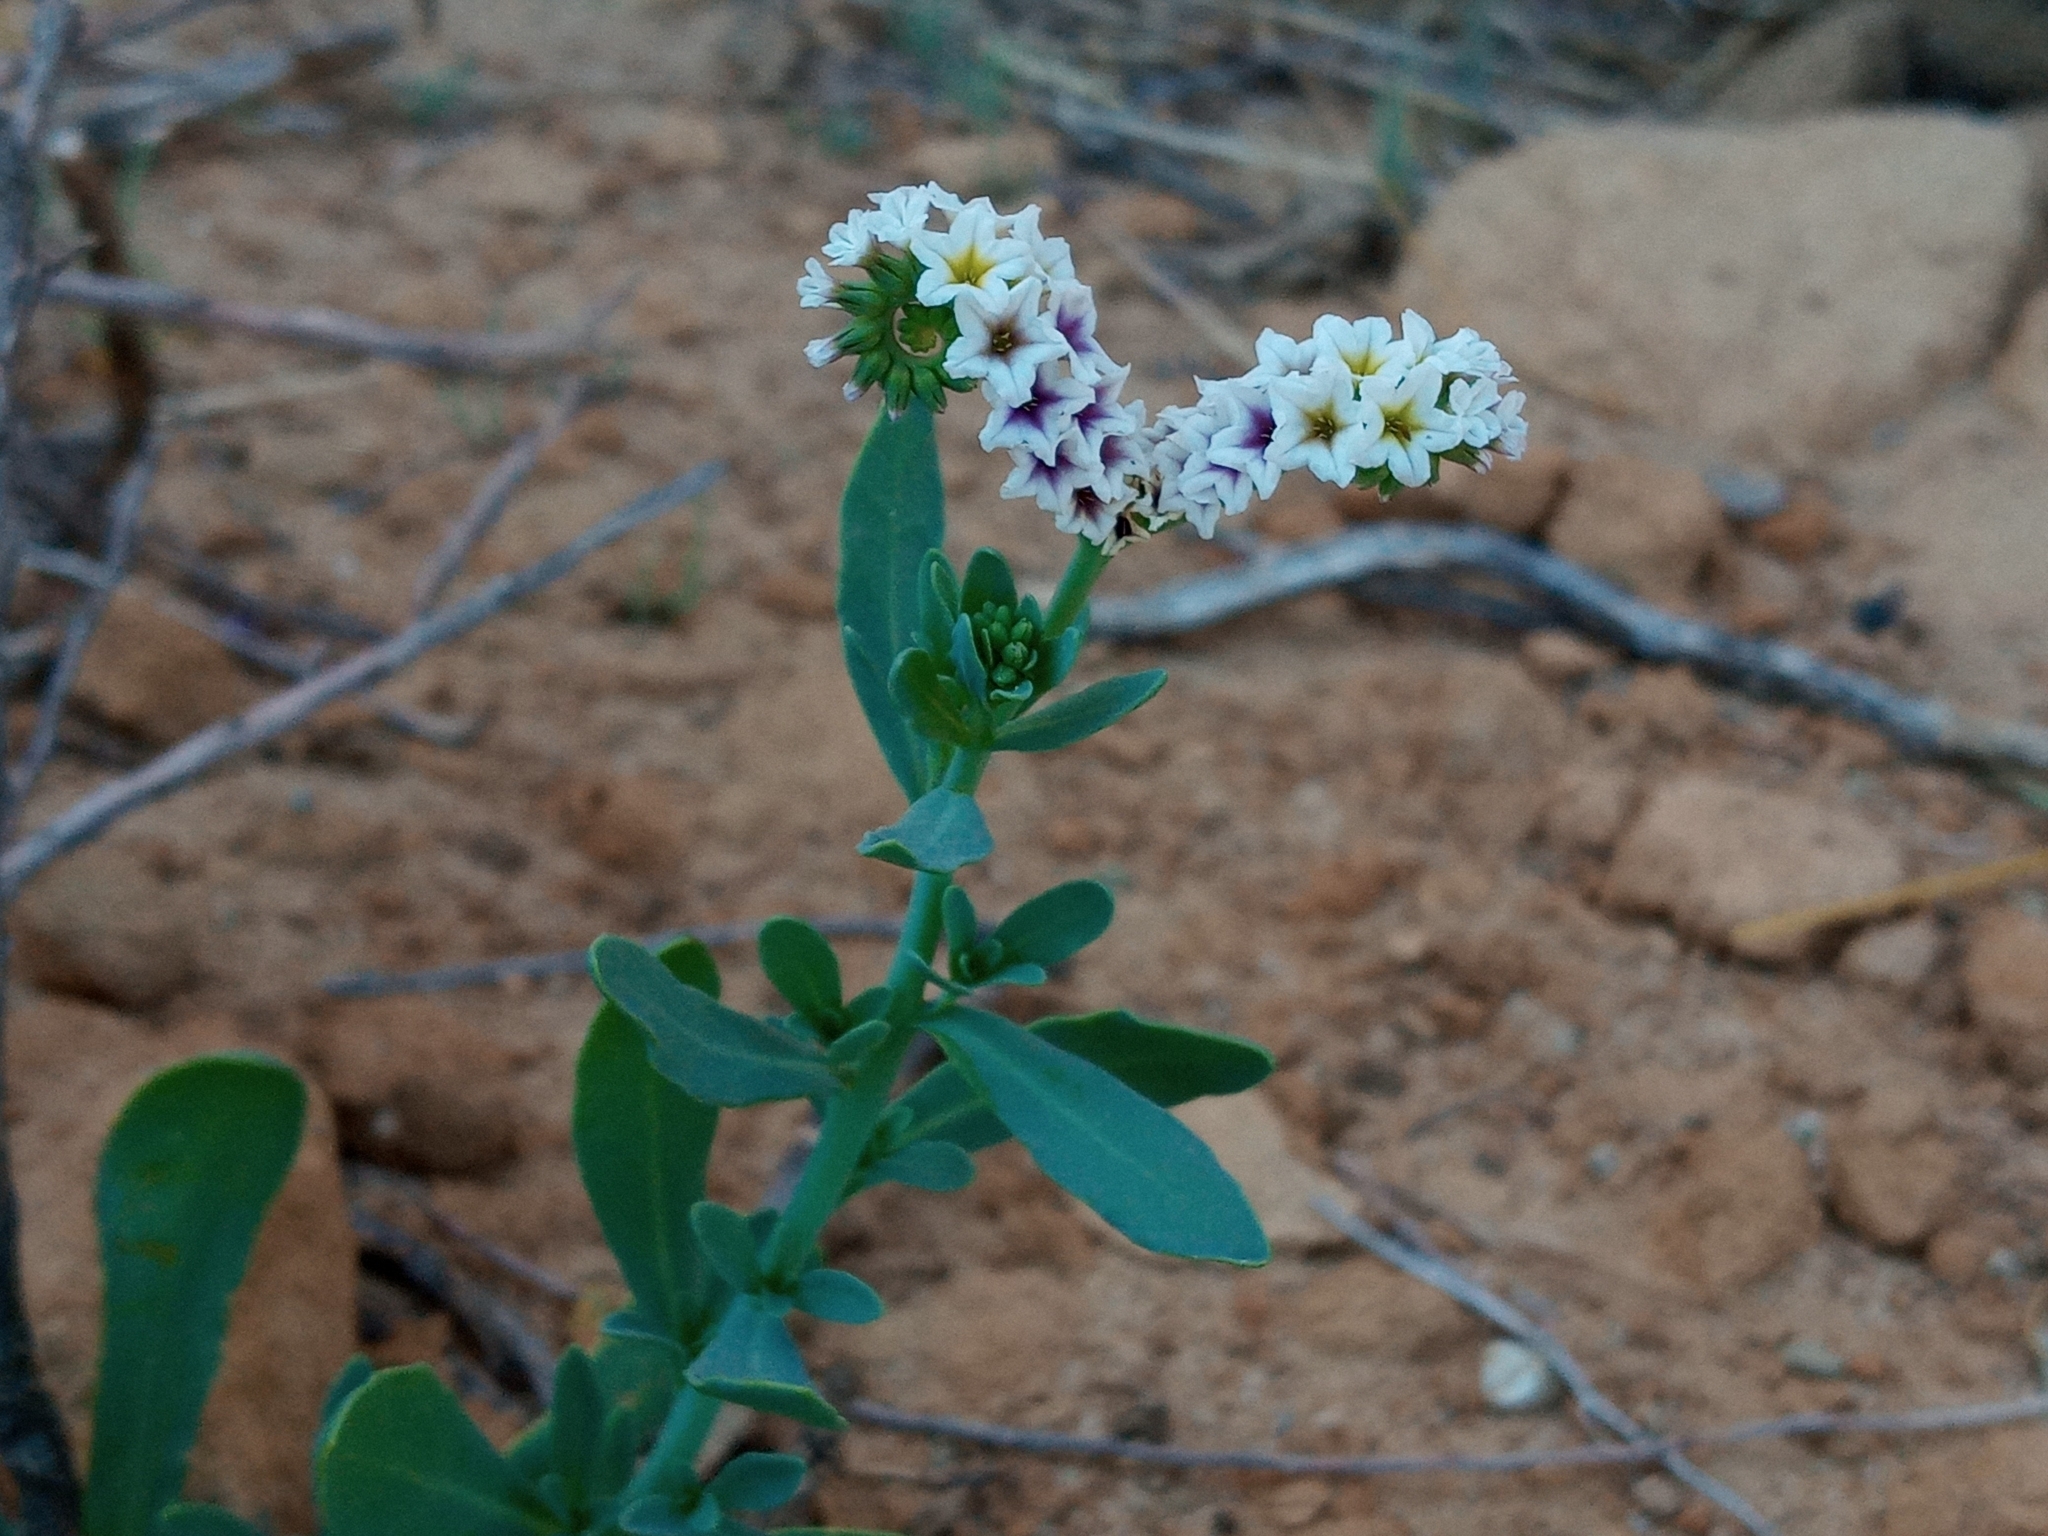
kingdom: Plantae
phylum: Tracheophyta
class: Magnoliopsida
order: Boraginales
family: Heliotropiaceae
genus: Heliotropium
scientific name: Heliotropium curassavicum
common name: Seaside heliotrope
